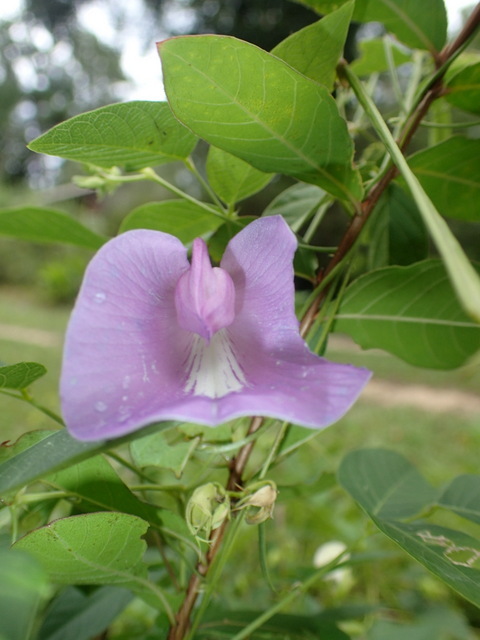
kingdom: Plantae
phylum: Tracheophyta
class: Magnoliopsida
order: Fabales
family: Fabaceae
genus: Centrosema
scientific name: Centrosema virginianum
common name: Butterfly-pea
